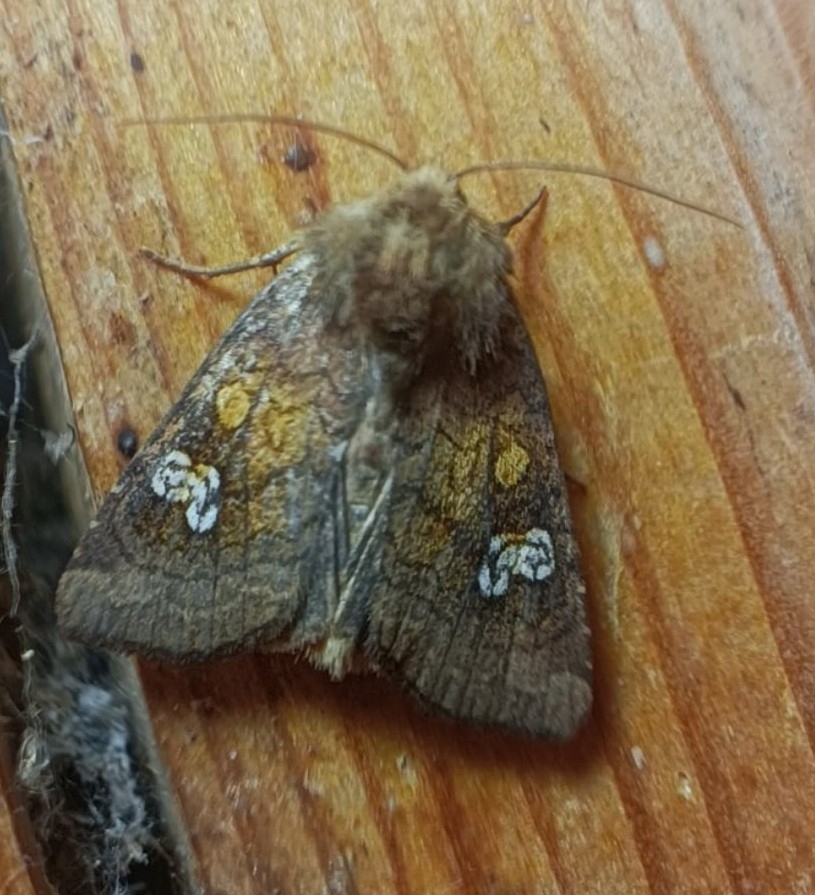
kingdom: Animalia
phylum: Arthropoda
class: Insecta
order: Lepidoptera
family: Noctuidae
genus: Amphipoea
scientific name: Amphipoea oculea
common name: Ear moth
